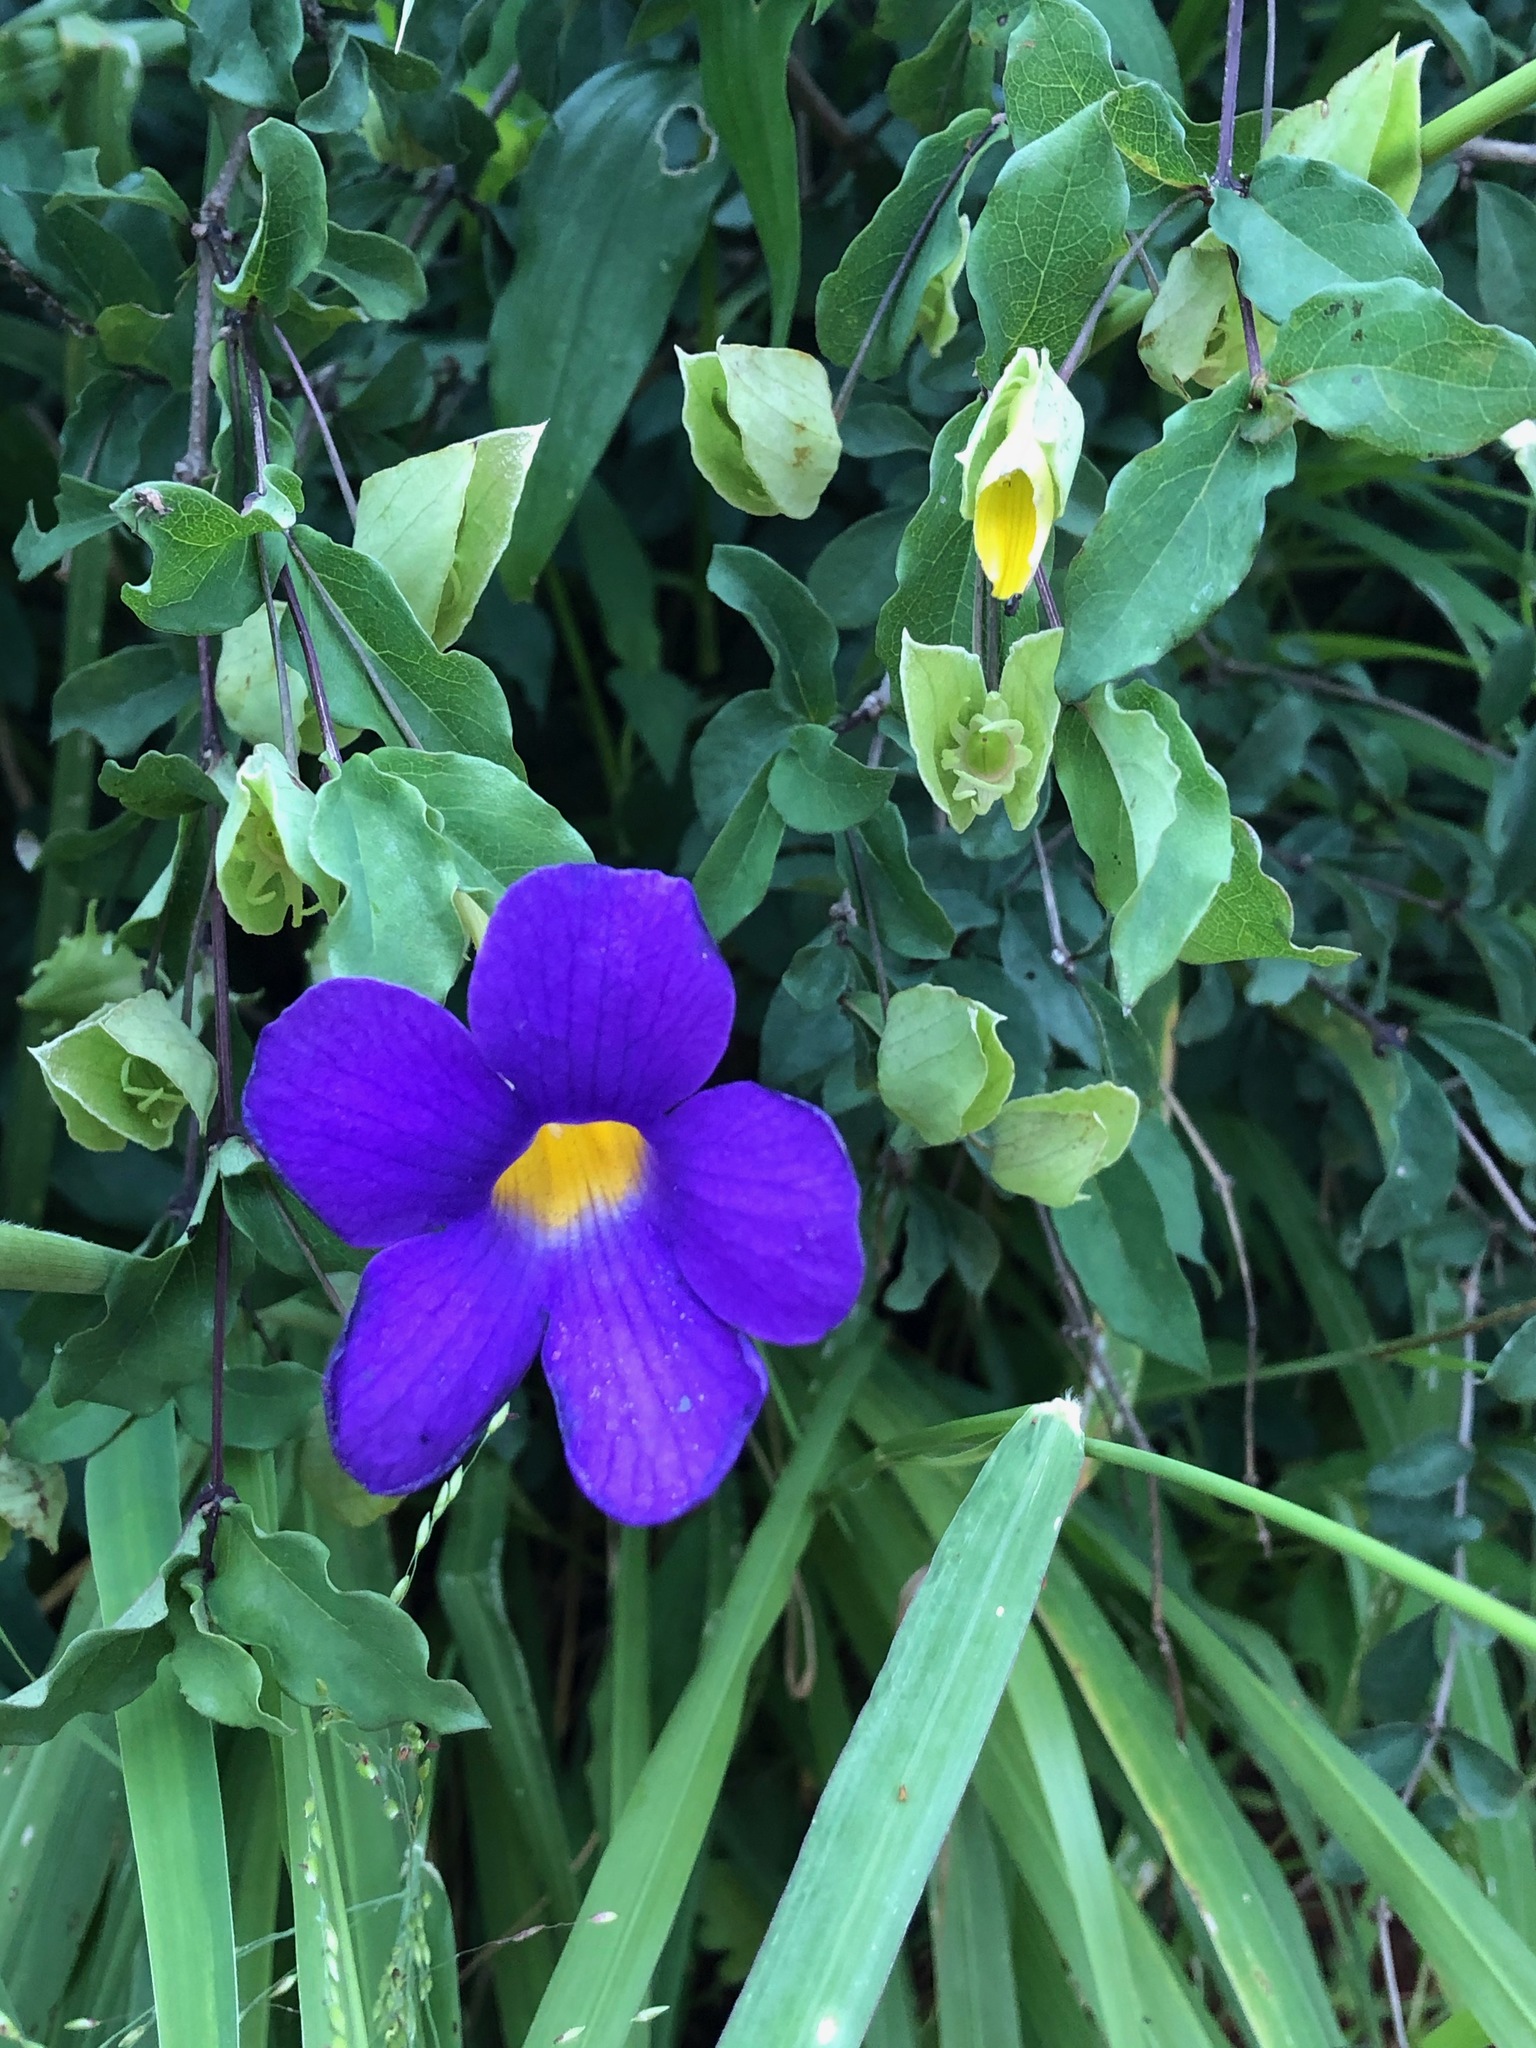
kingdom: Plantae
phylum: Tracheophyta
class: Magnoliopsida
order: Lamiales
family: Acanthaceae
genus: Thunbergia
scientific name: Thunbergia erecta
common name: Bush clockvine
